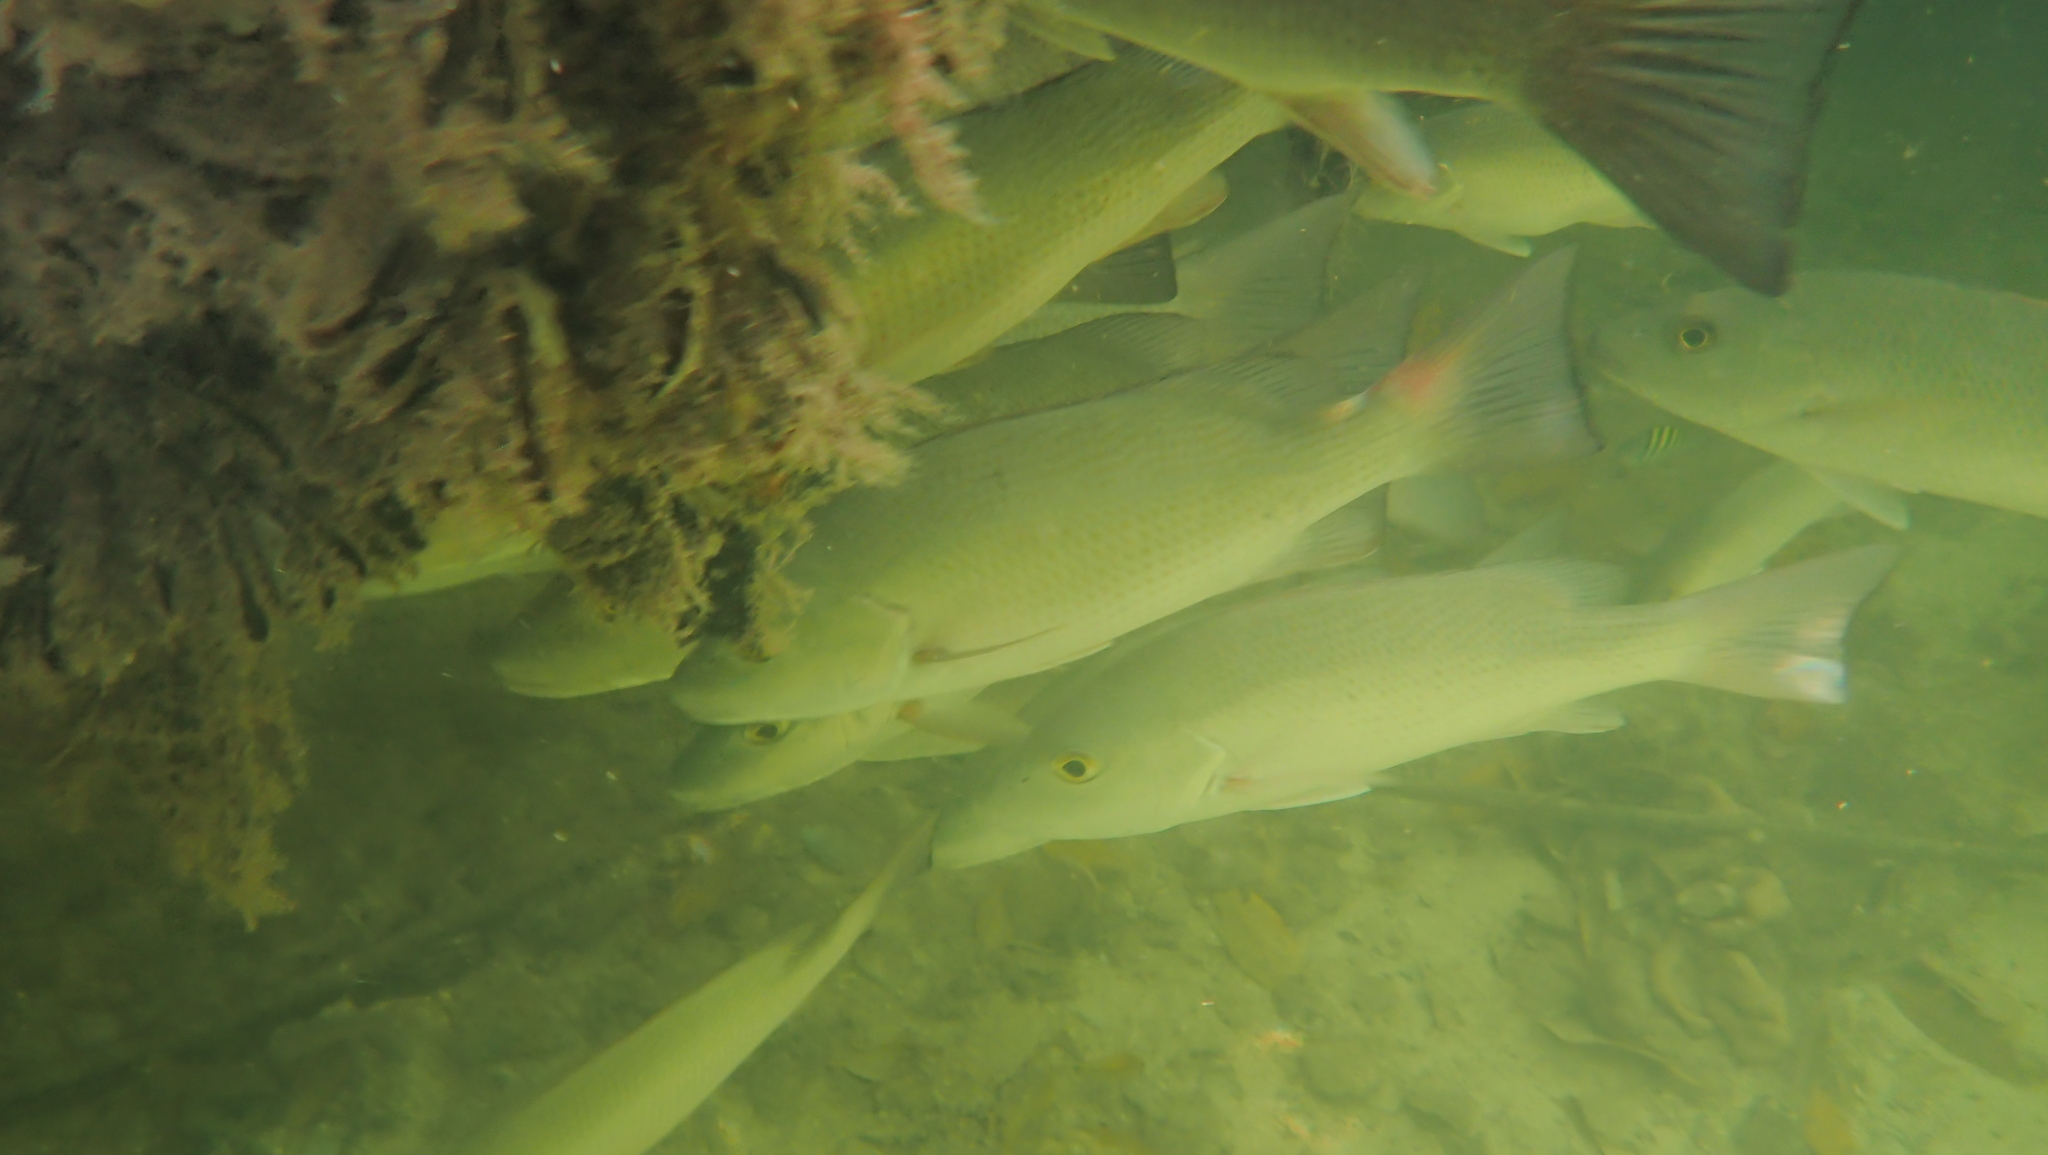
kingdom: Animalia
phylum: Chordata
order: Perciformes
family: Lutjanidae
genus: Lutjanus
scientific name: Lutjanus griseus
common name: Gray snapper
